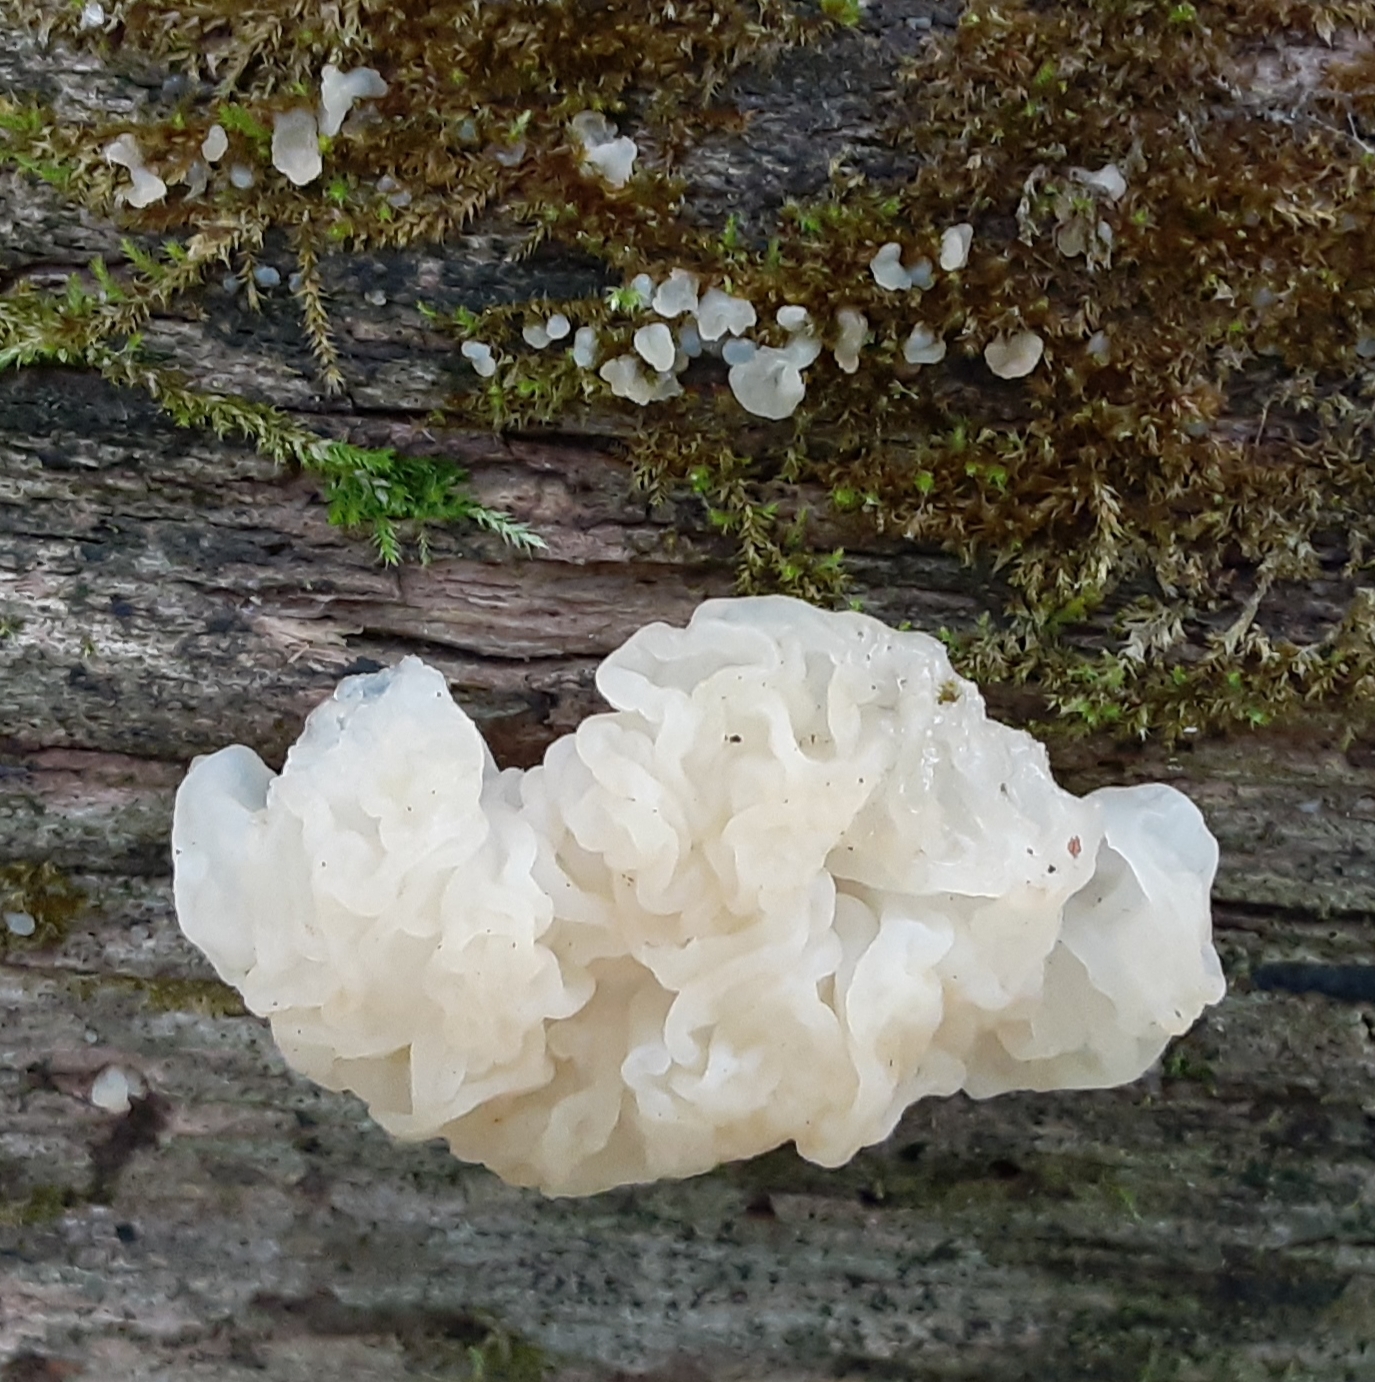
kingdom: Fungi
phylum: Basidiomycota
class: Agaricomycetes
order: Auriculariales
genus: Ductifera
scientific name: Ductifera pululahuana
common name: White jelly fungus
